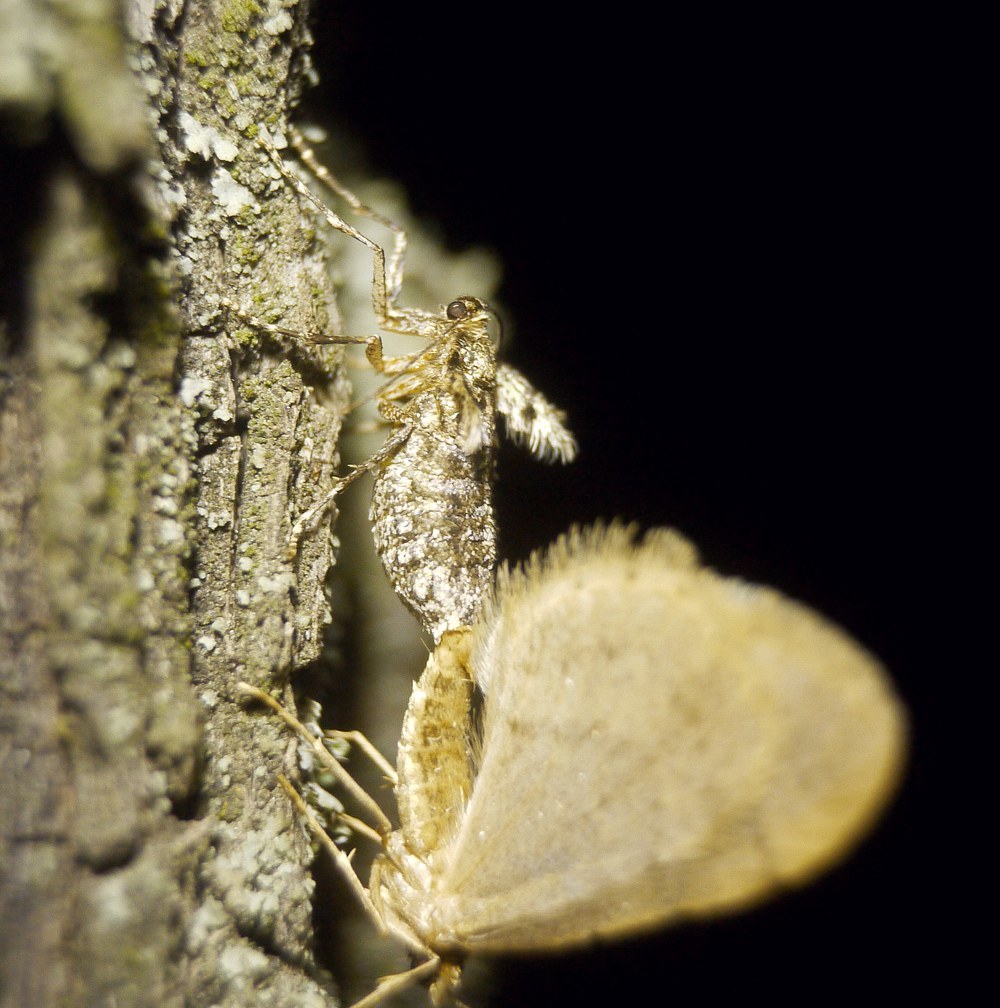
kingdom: Animalia
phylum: Arthropoda
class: Insecta
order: Lepidoptera
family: Geometridae
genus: Operophtera
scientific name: Operophtera brumata
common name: Winter moth
